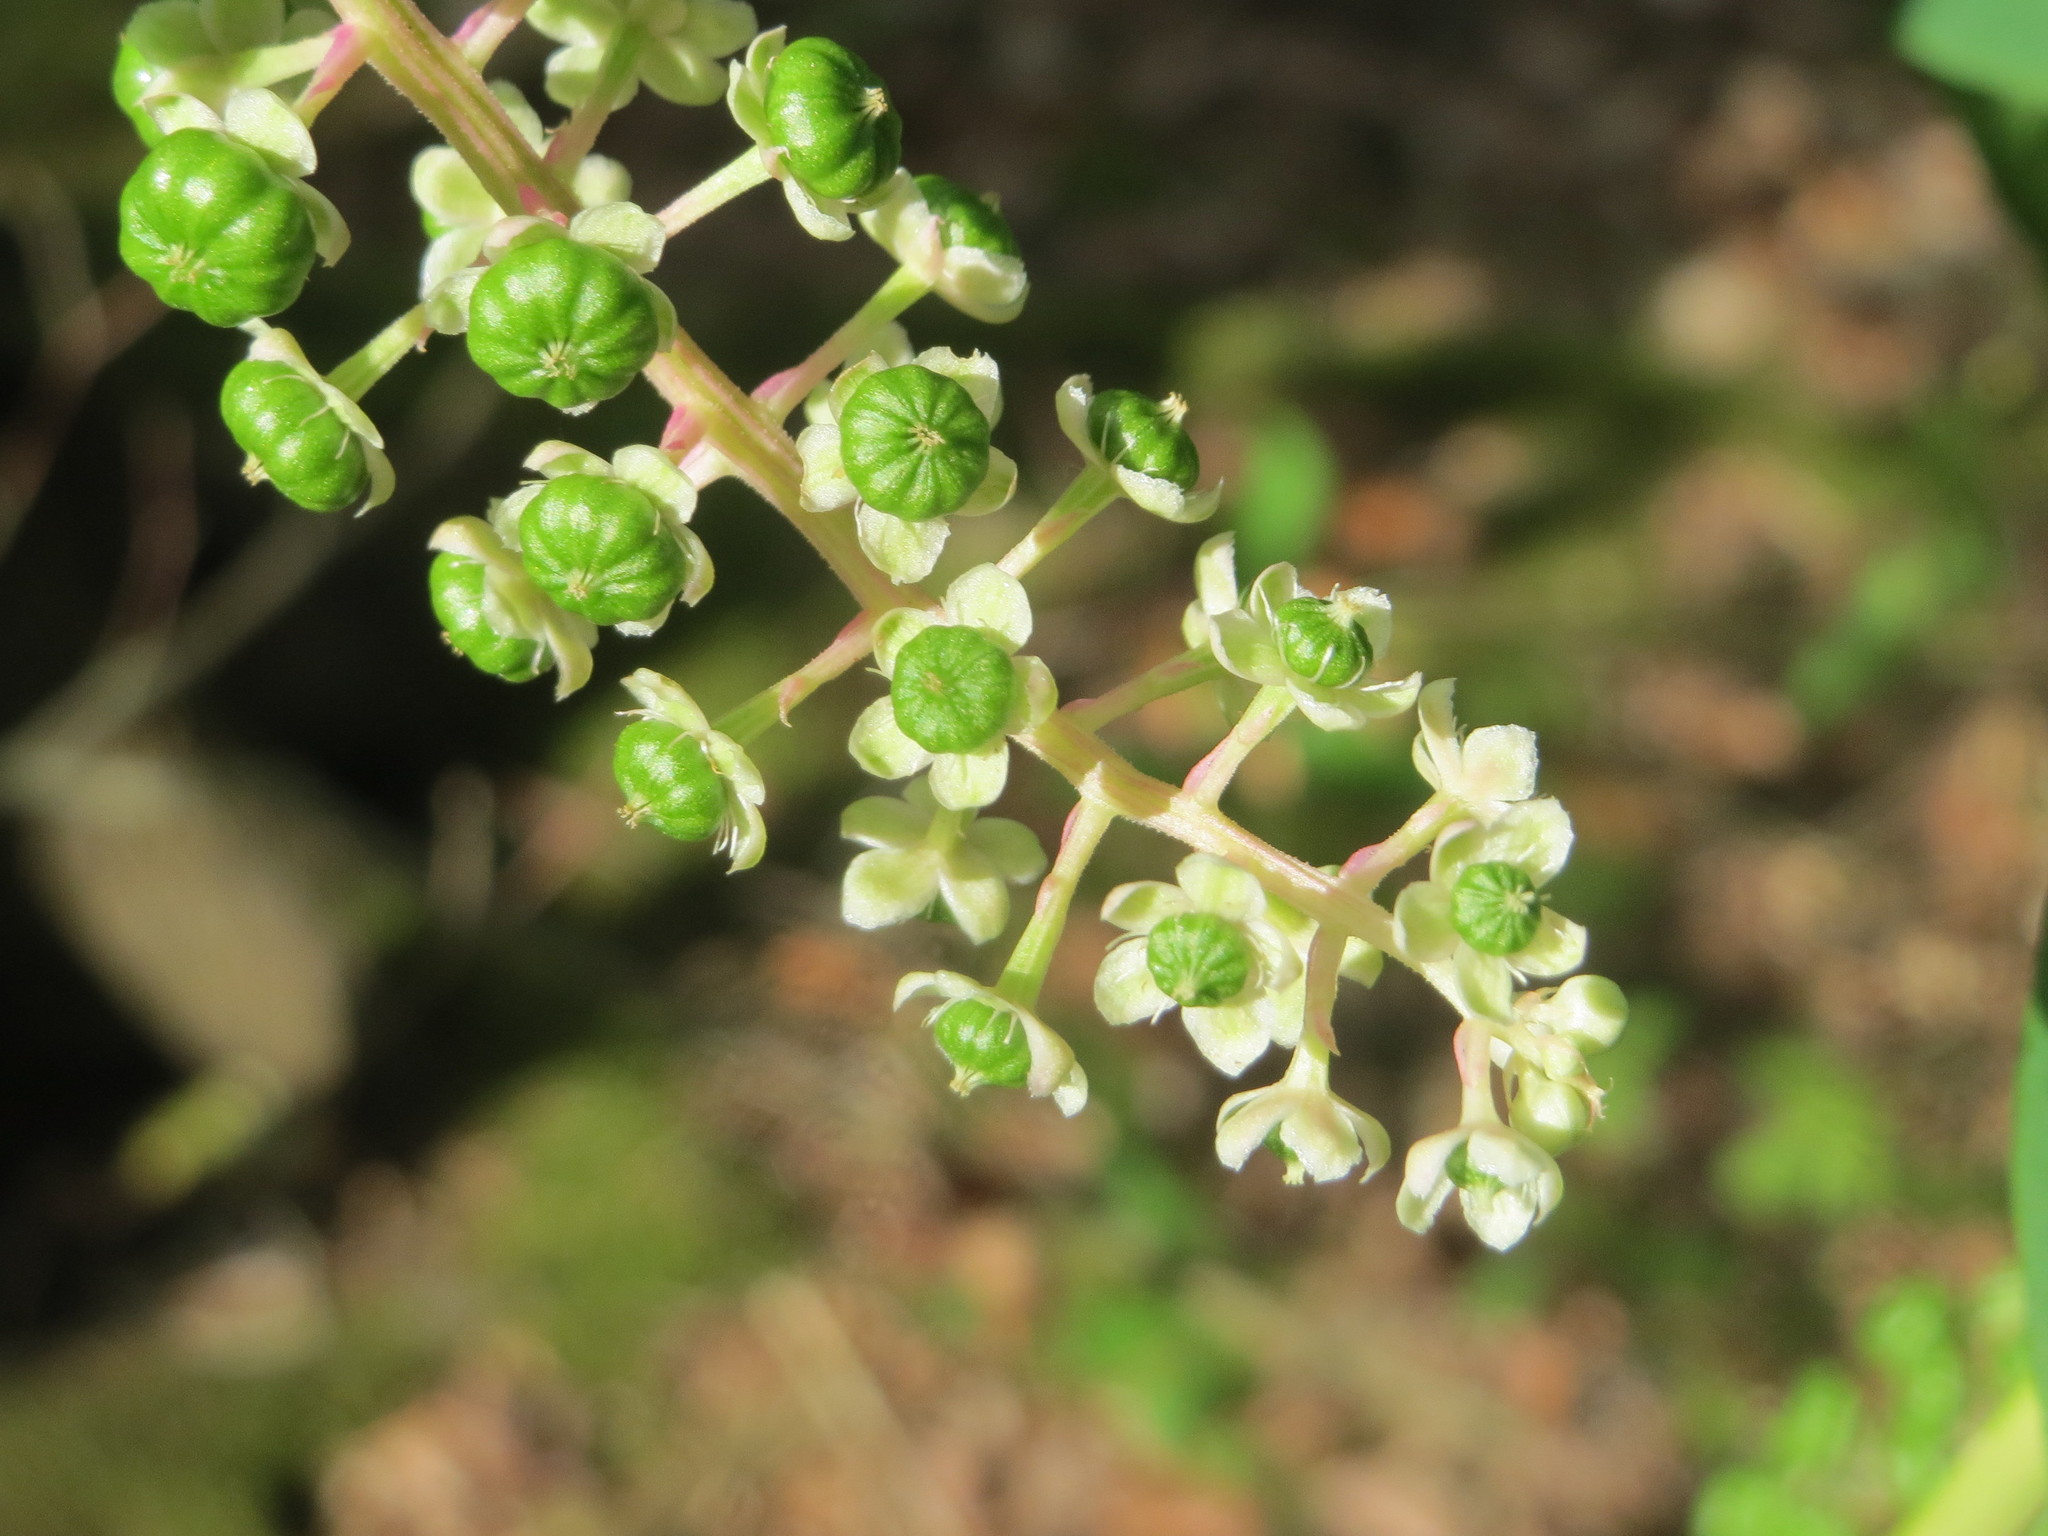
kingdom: Plantae
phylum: Tracheophyta
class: Magnoliopsida
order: Caryophyllales
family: Phytolaccaceae
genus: Phytolacca
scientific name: Phytolacca americana
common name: American pokeweed
